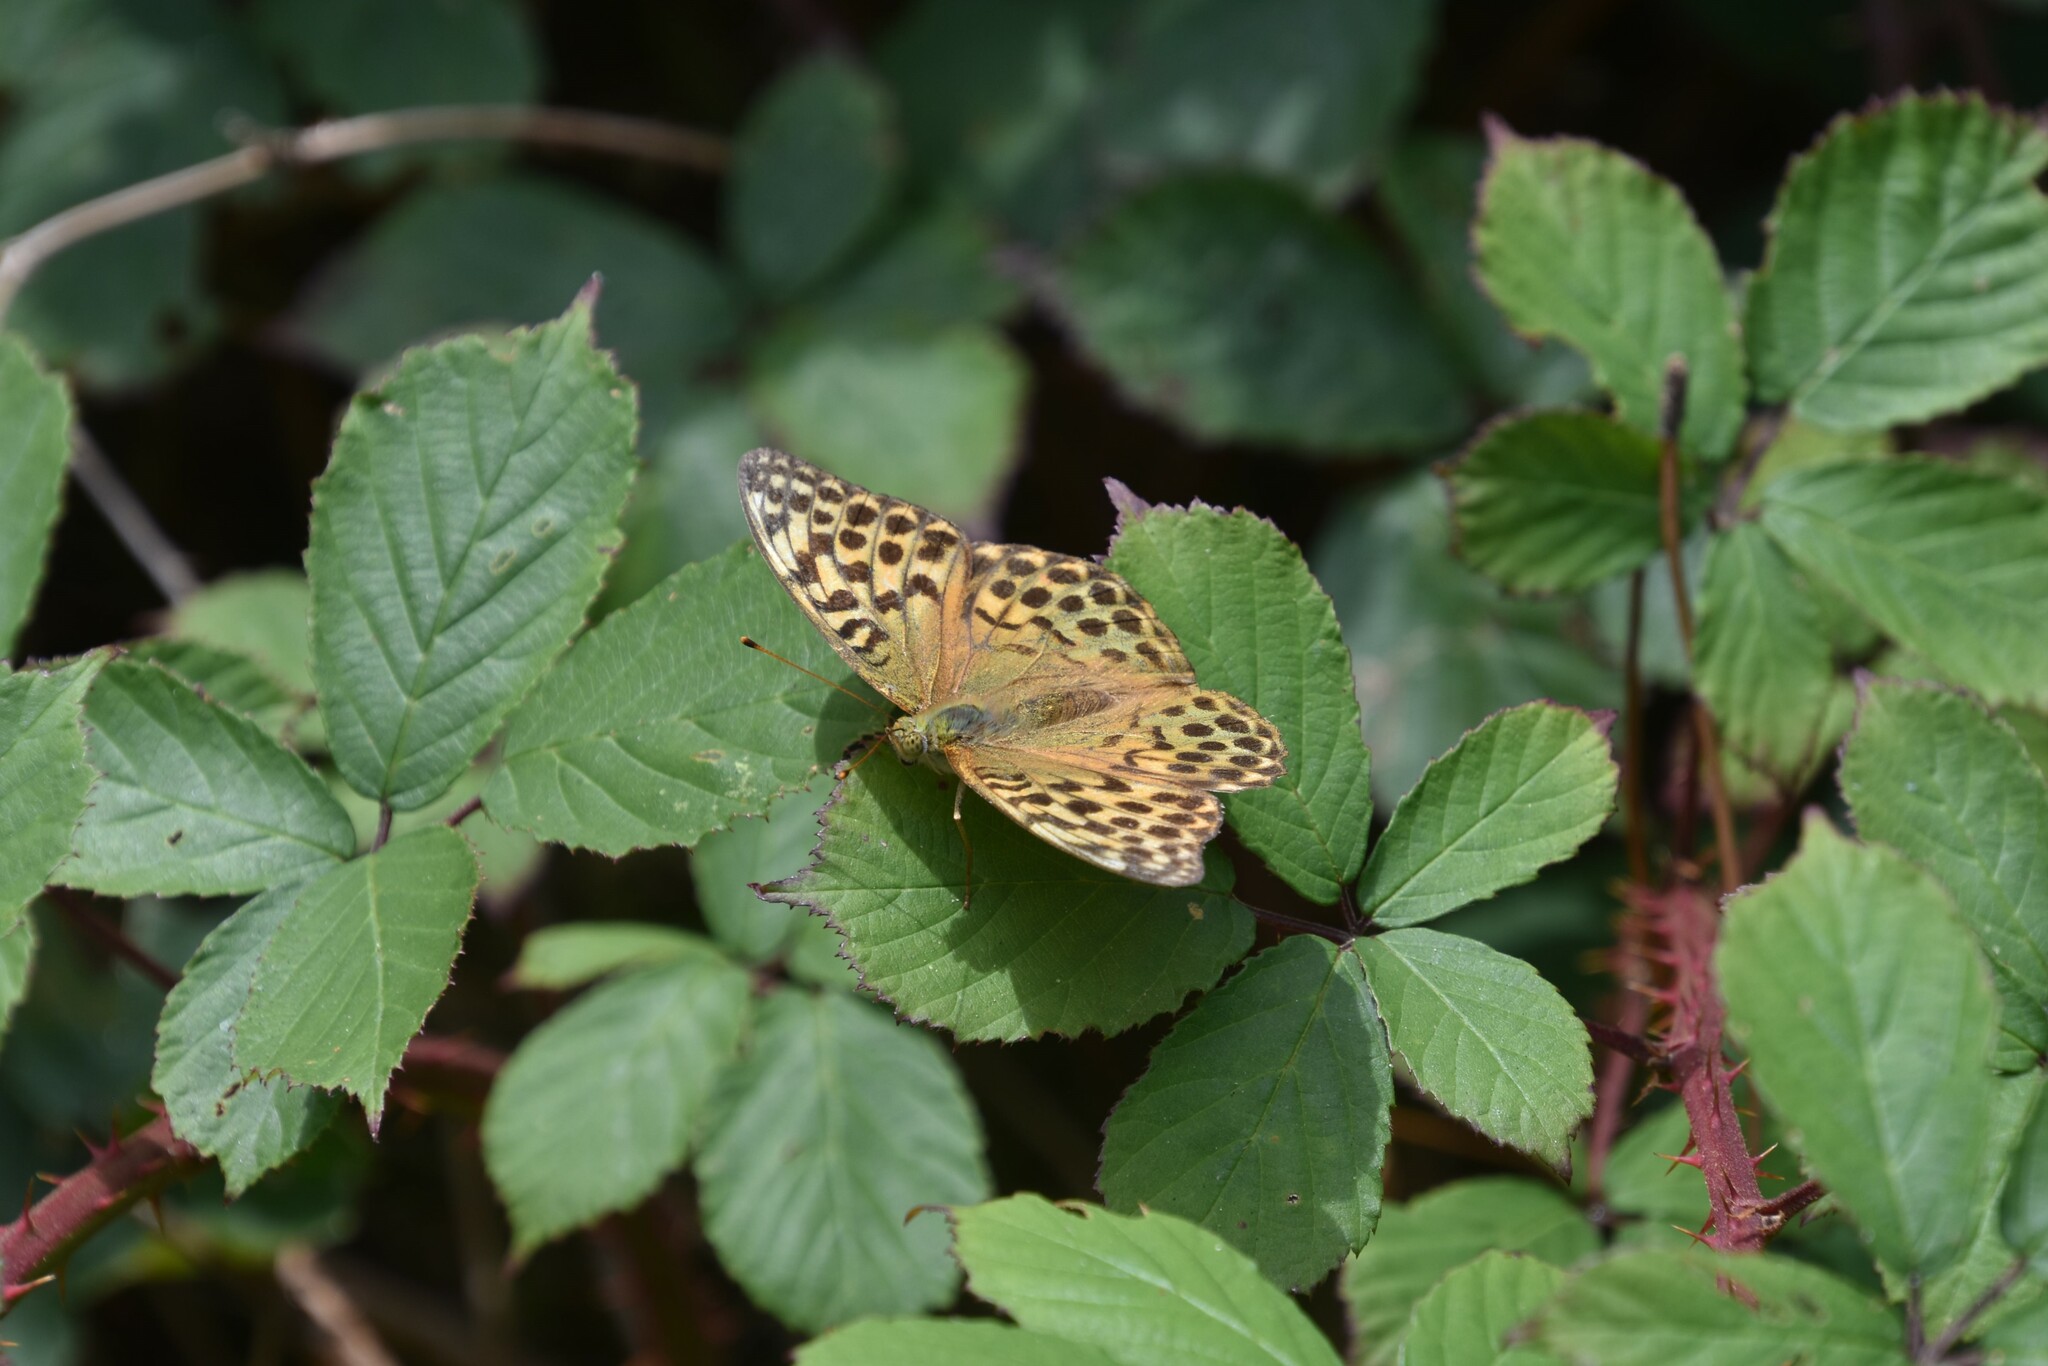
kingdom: Animalia
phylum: Arthropoda
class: Insecta
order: Lepidoptera
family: Nymphalidae
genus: Argynnis
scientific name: Argynnis paphia
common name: Silver-washed fritillary
